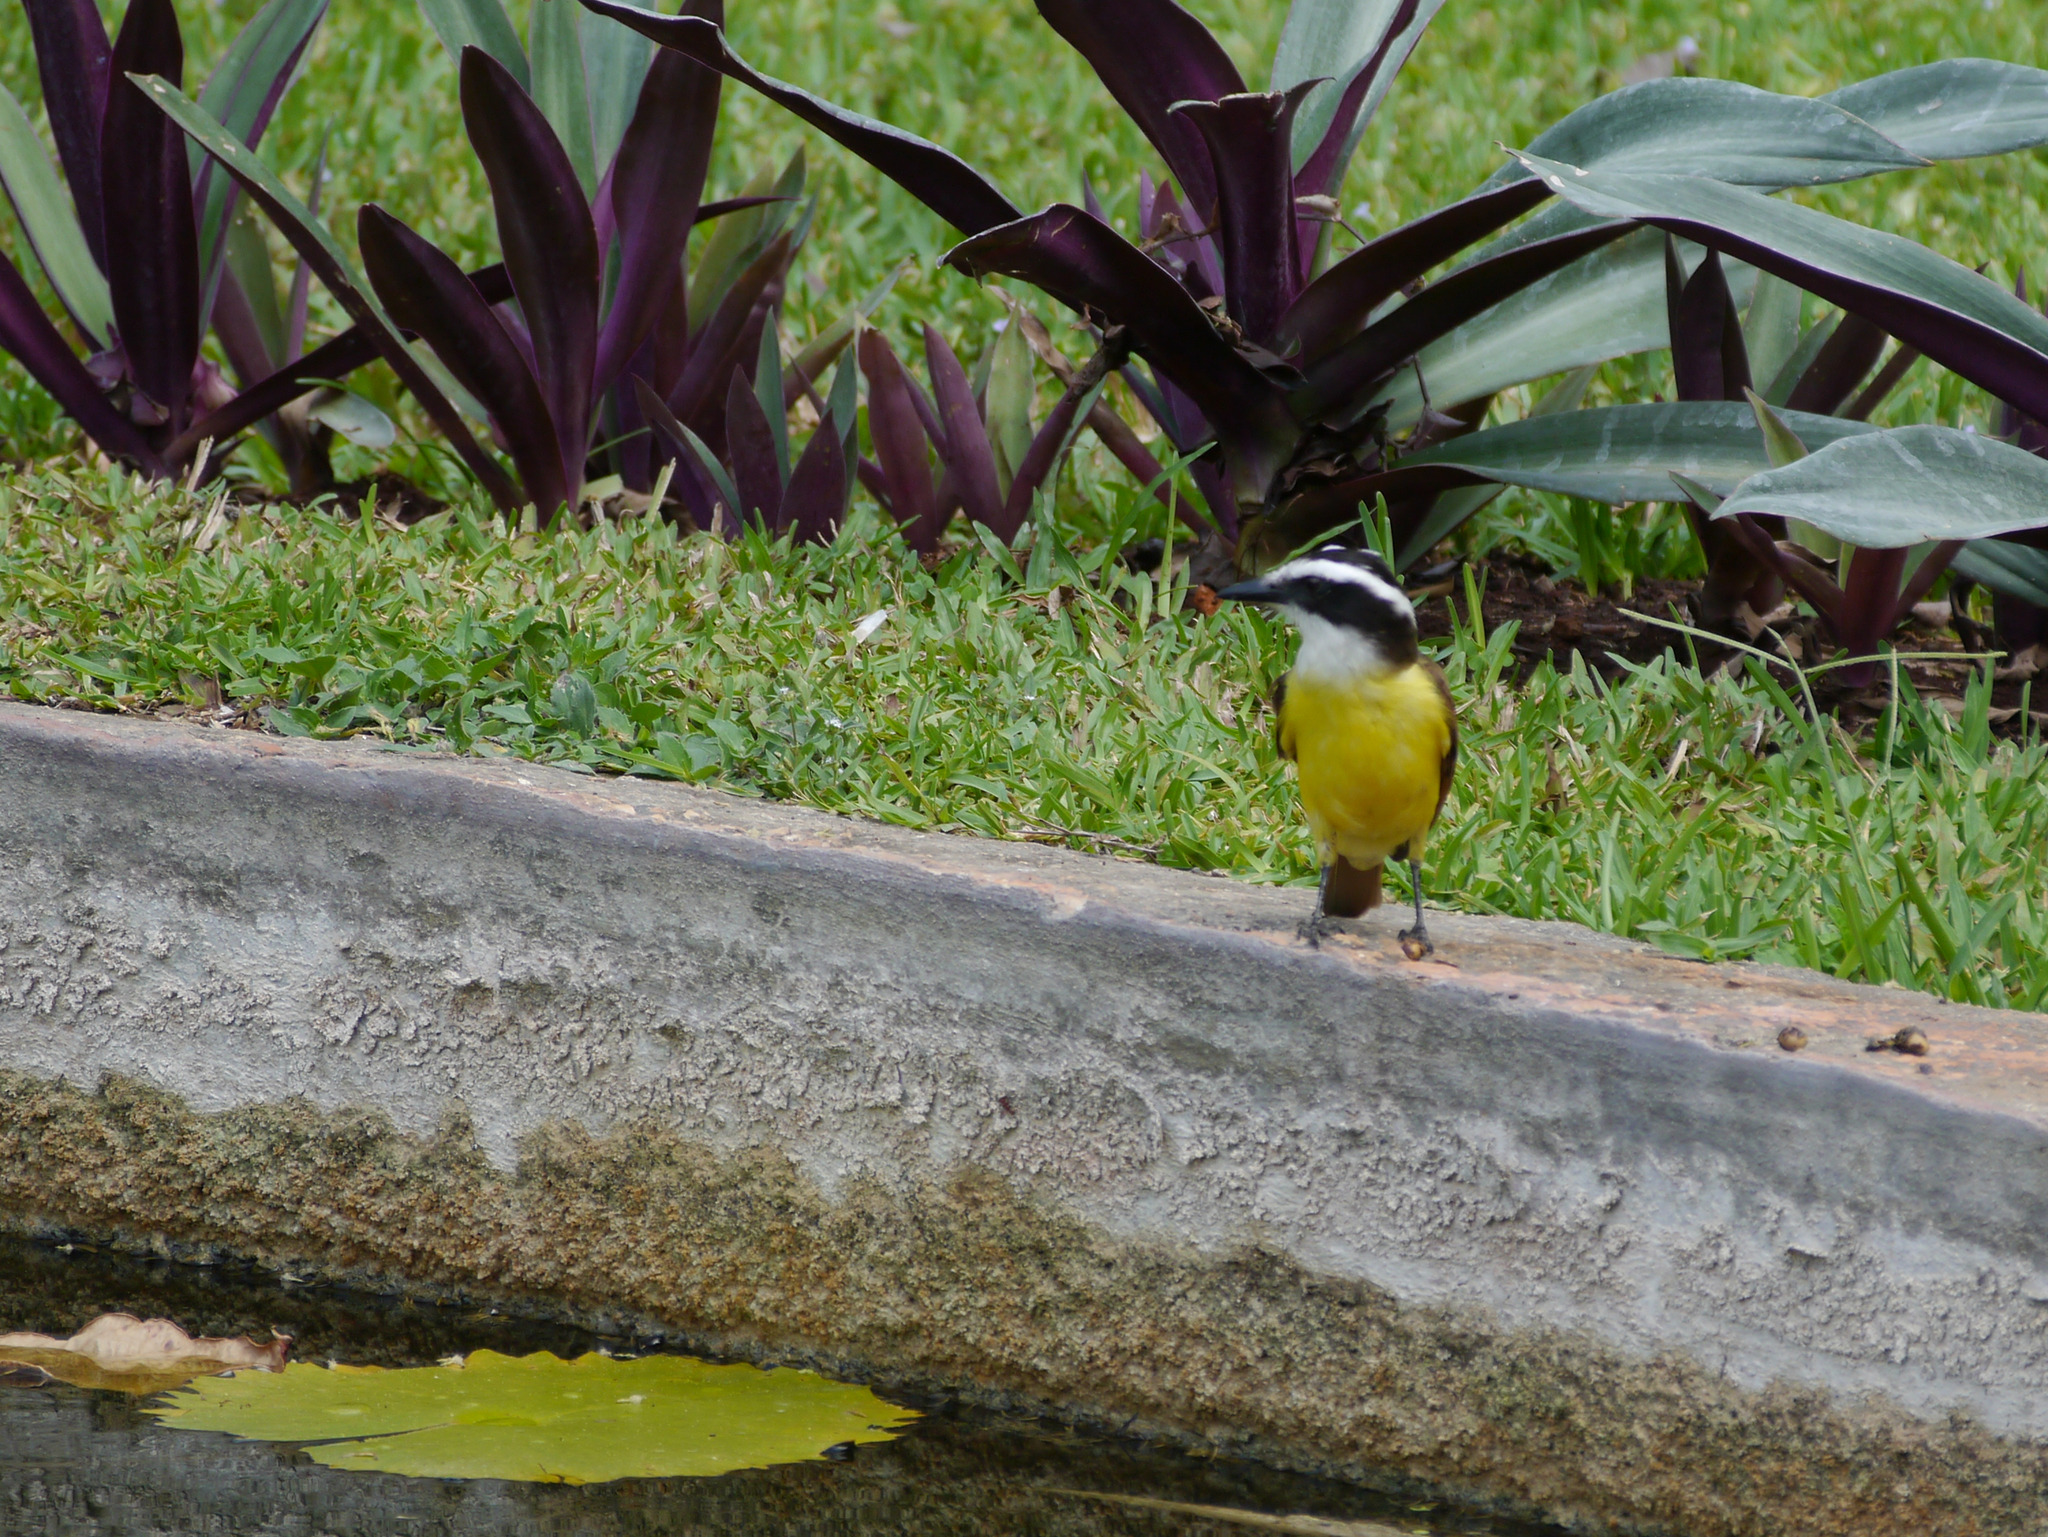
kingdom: Animalia
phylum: Chordata
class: Aves
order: Passeriformes
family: Tyrannidae
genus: Pitangus
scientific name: Pitangus sulphuratus
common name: Great kiskadee
